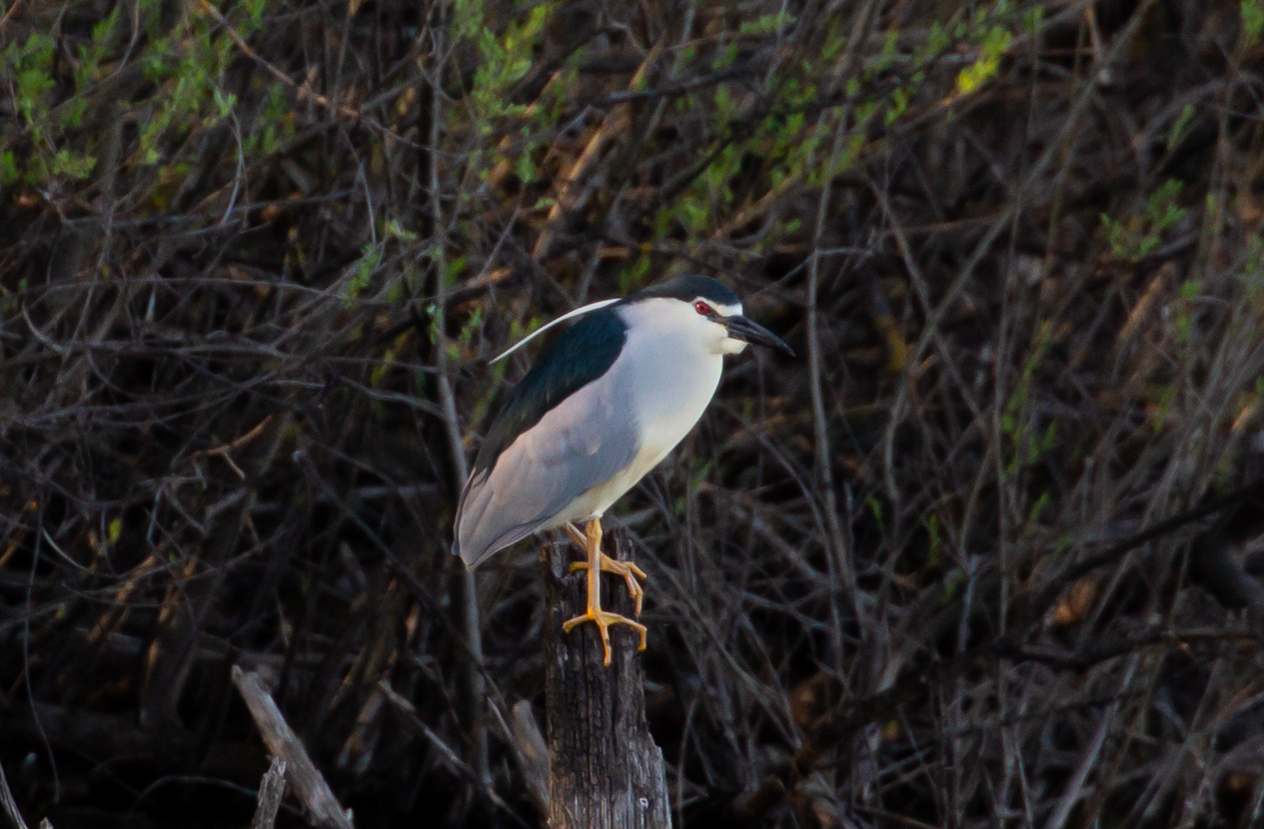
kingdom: Animalia
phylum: Chordata
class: Aves
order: Pelecaniformes
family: Ardeidae
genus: Nycticorax
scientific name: Nycticorax nycticorax
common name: Black-crowned night heron
